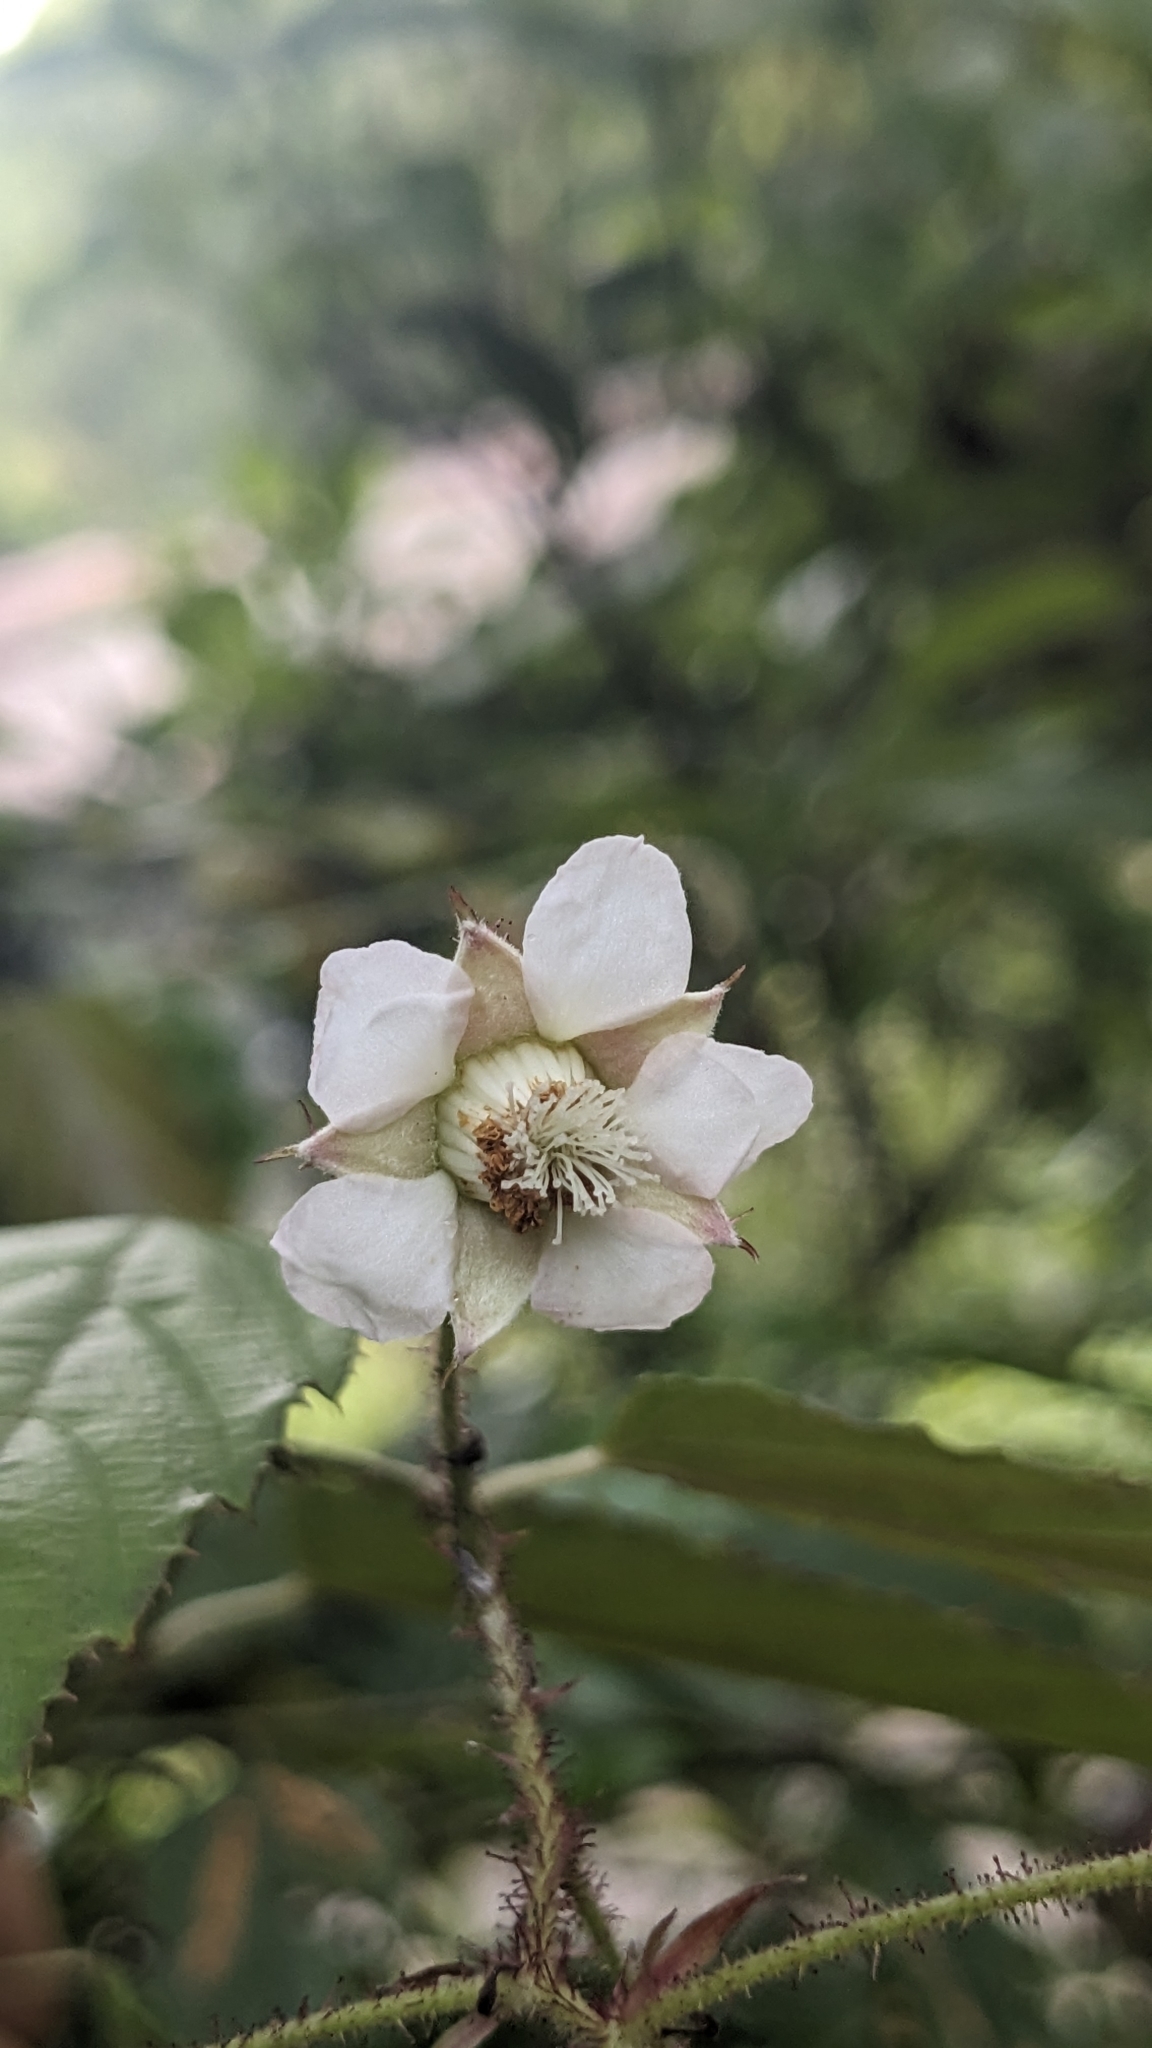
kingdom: Plantae
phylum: Tracheophyta
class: Magnoliopsida
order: Rosales
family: Rosaceae
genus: Rubus
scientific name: Rubus swinhoei
